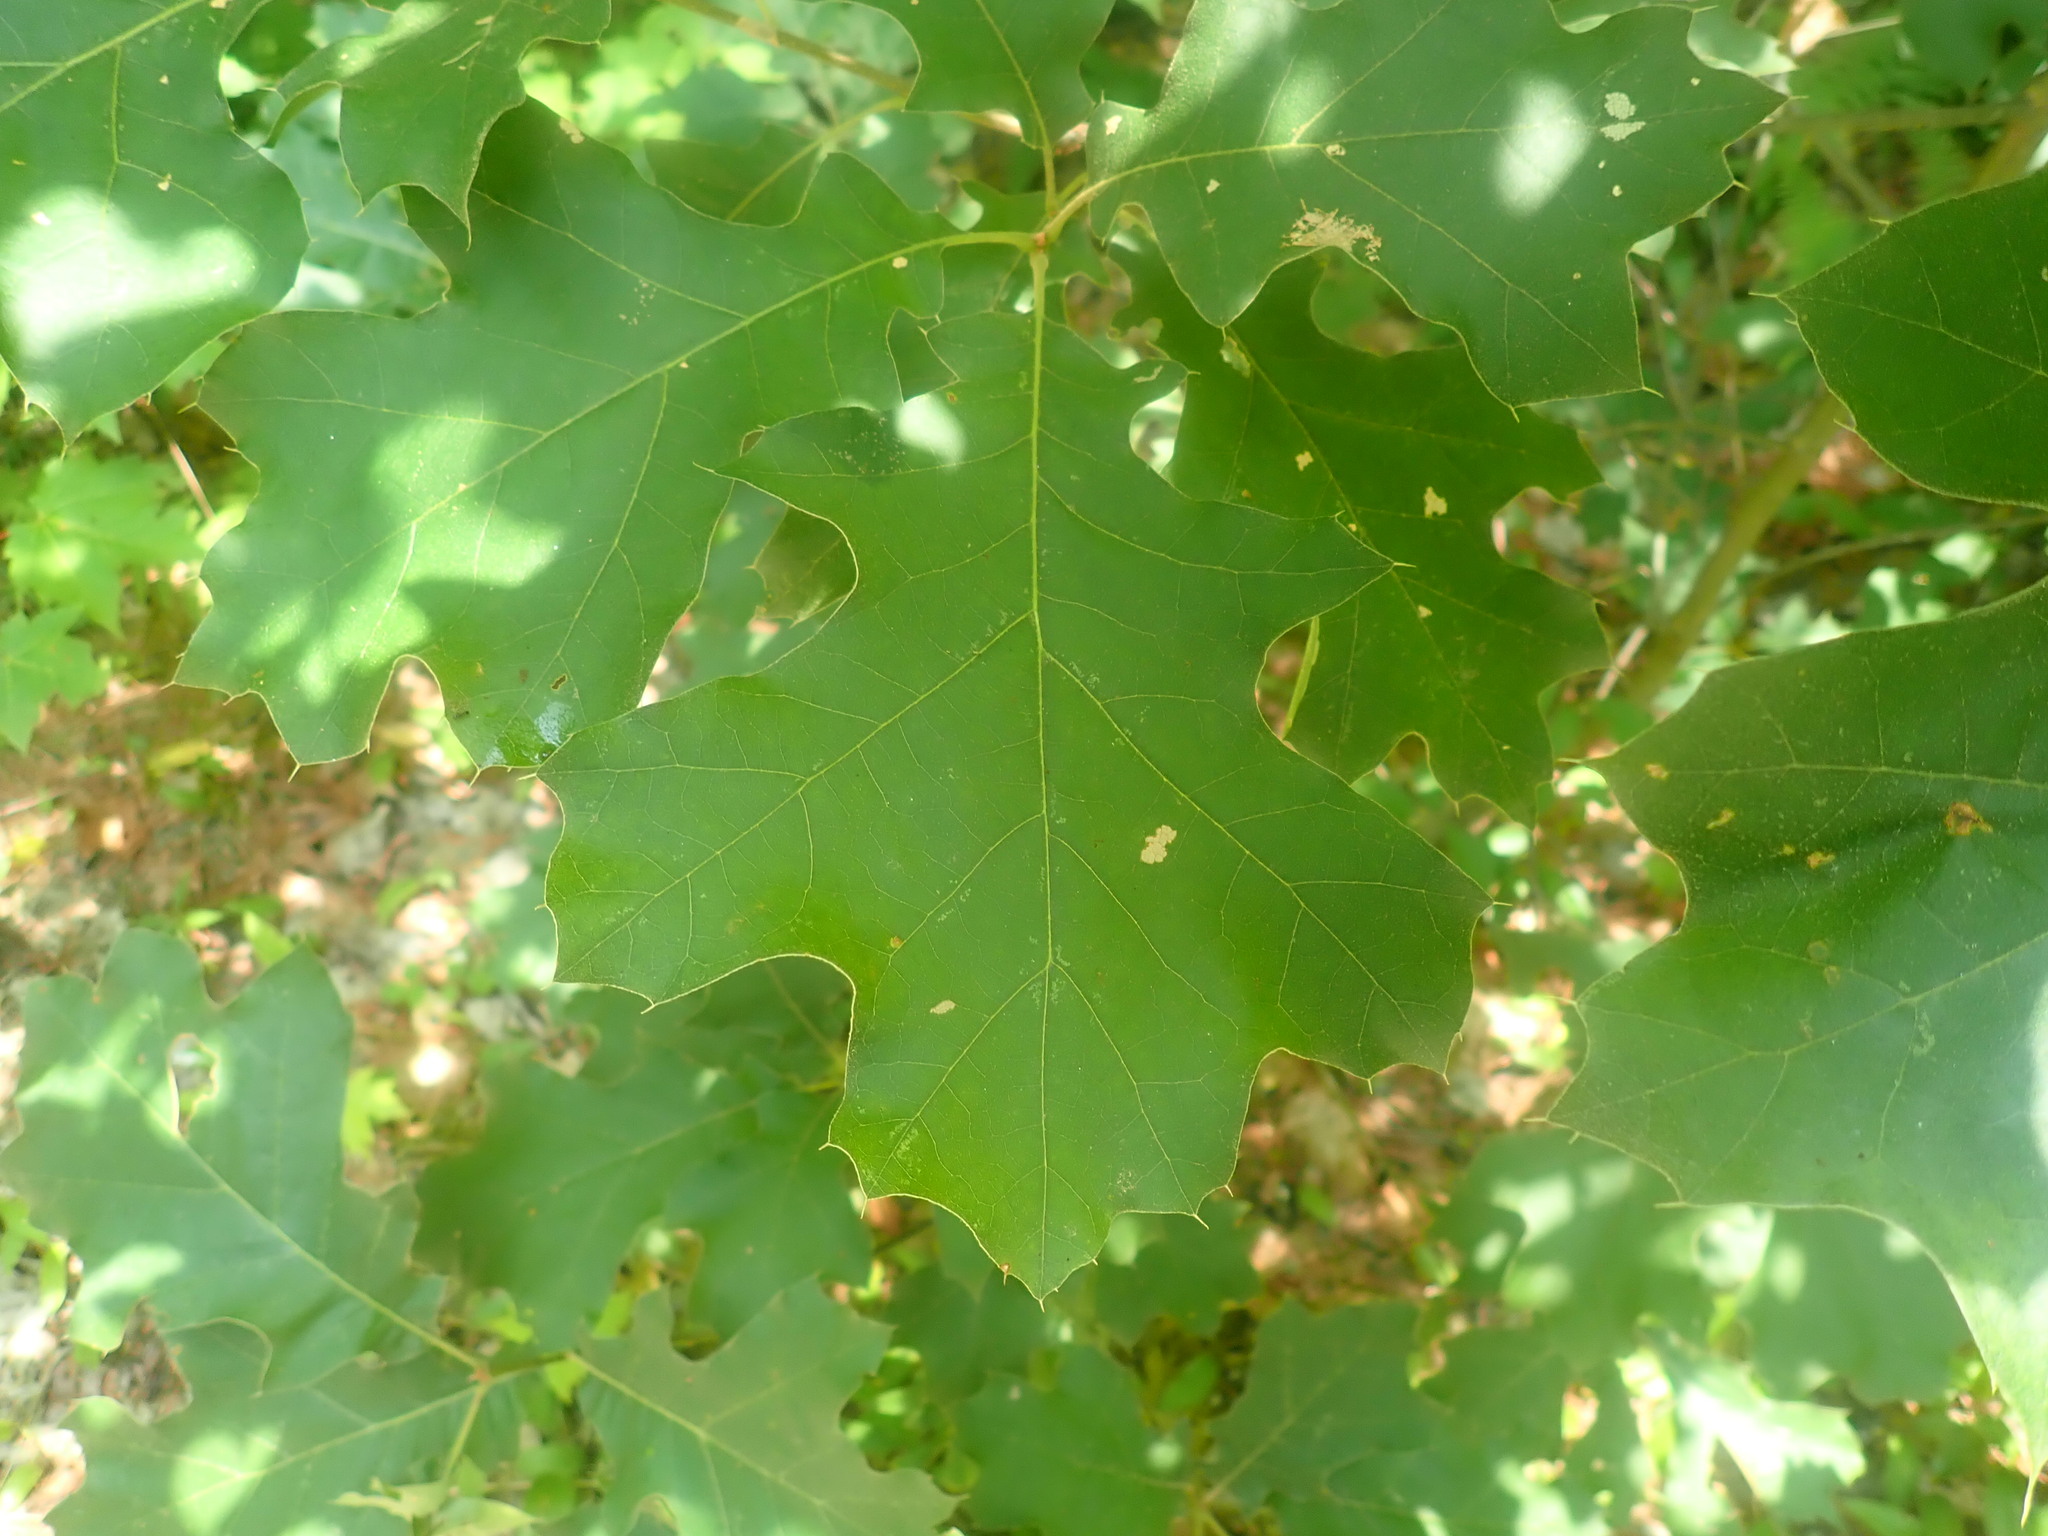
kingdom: Plantae
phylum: Tracheophyta
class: Magnoliopsida
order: Fagales
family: Fagaceae
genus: Quercus
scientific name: Quercus velutina
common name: Black oak
